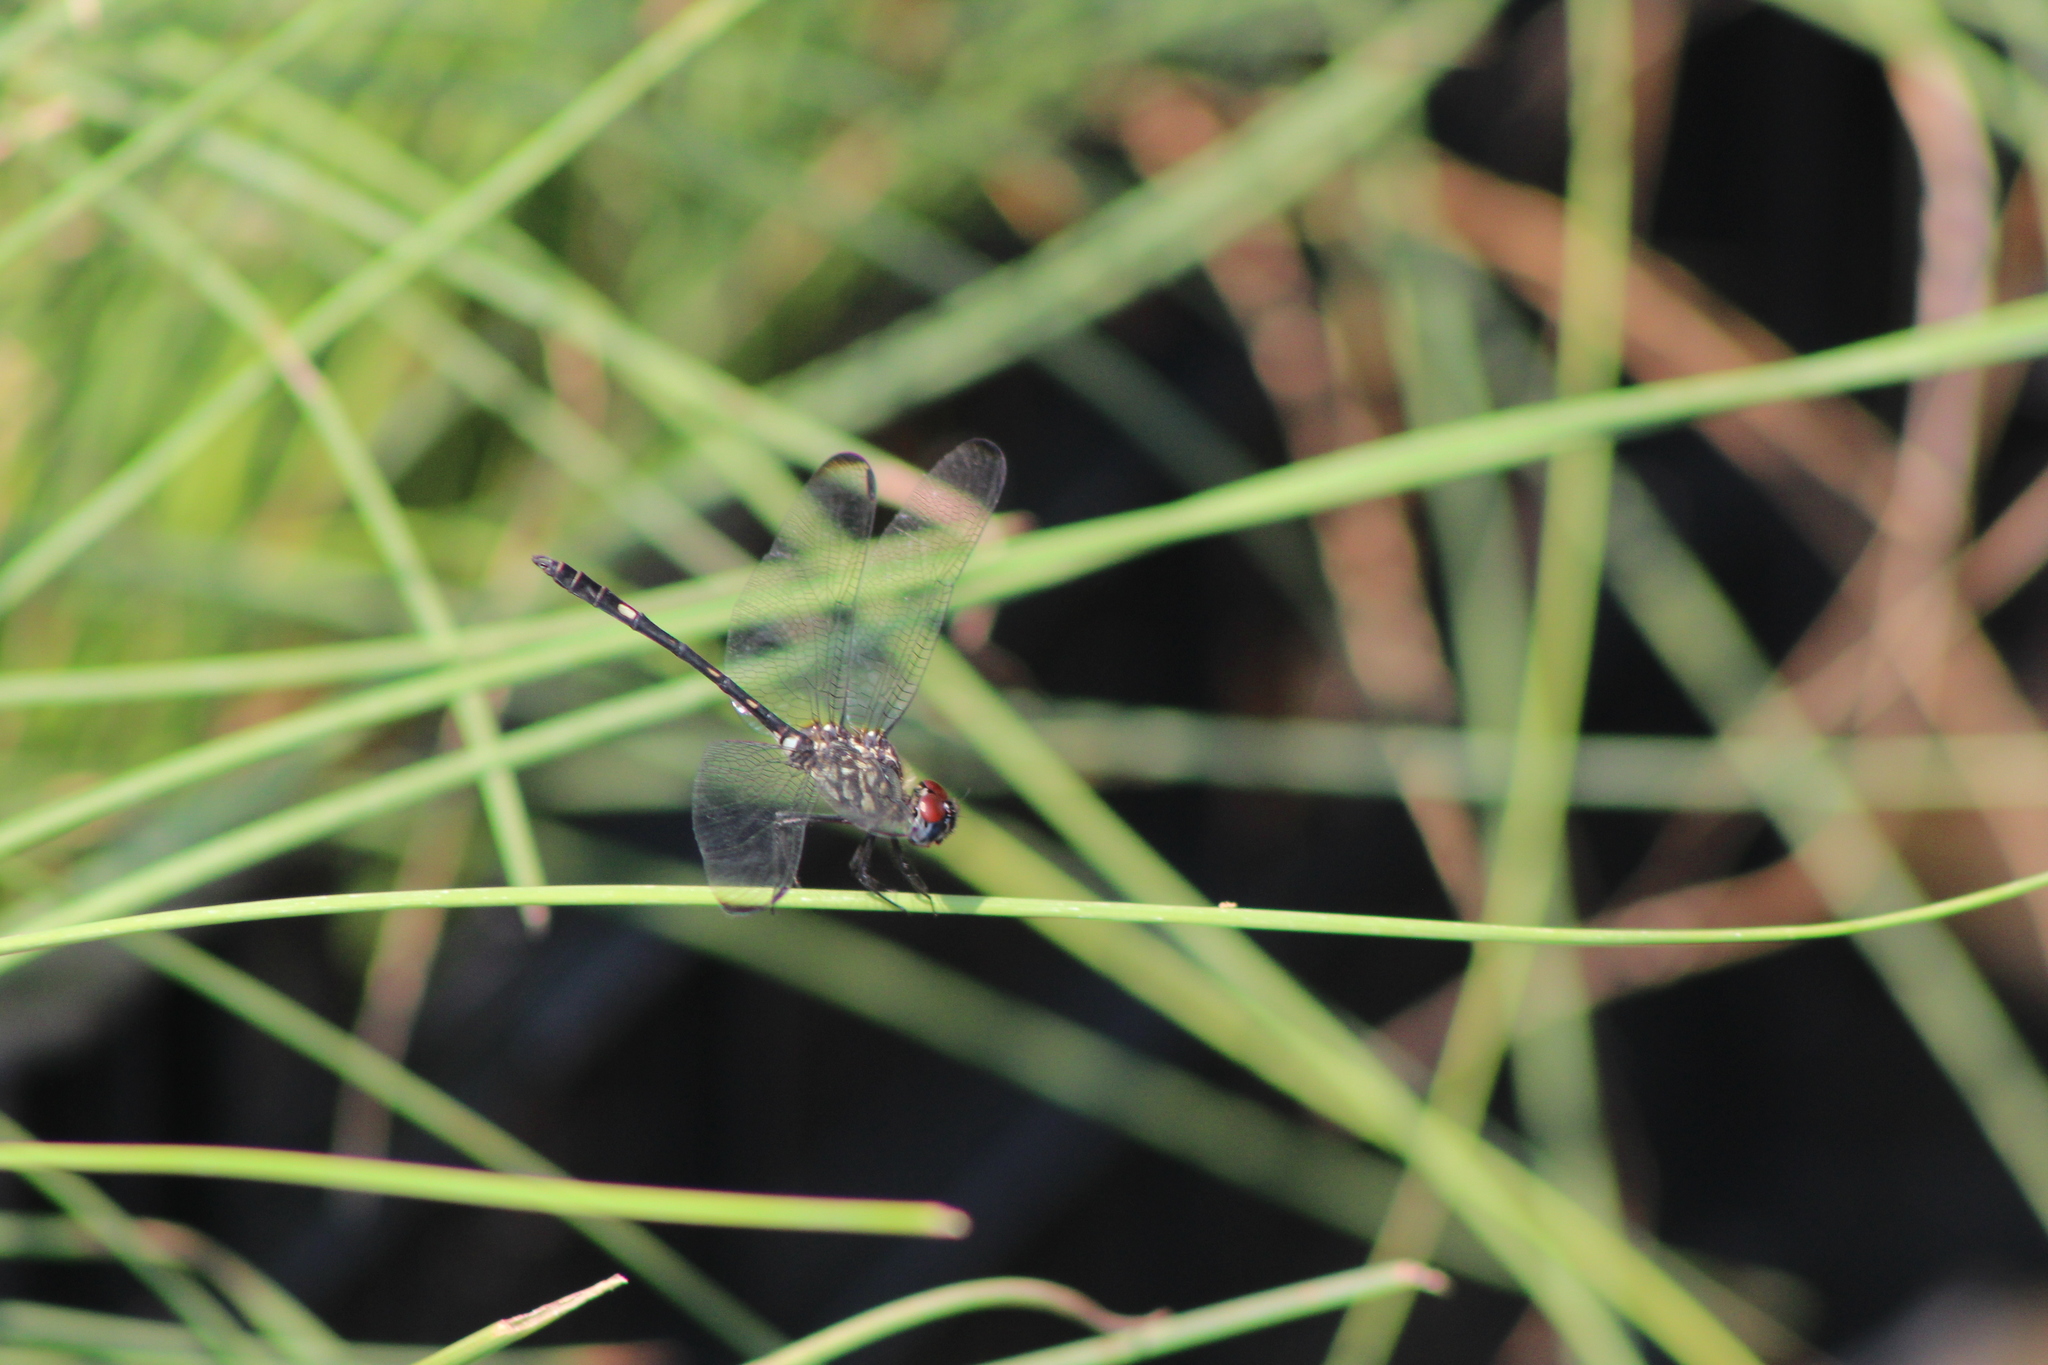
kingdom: Animalia
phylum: Arthropoda
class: Insecta
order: Odonata
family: Libellulidae
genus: Dythemis
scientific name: Dythemis velox
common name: Swift setwing
